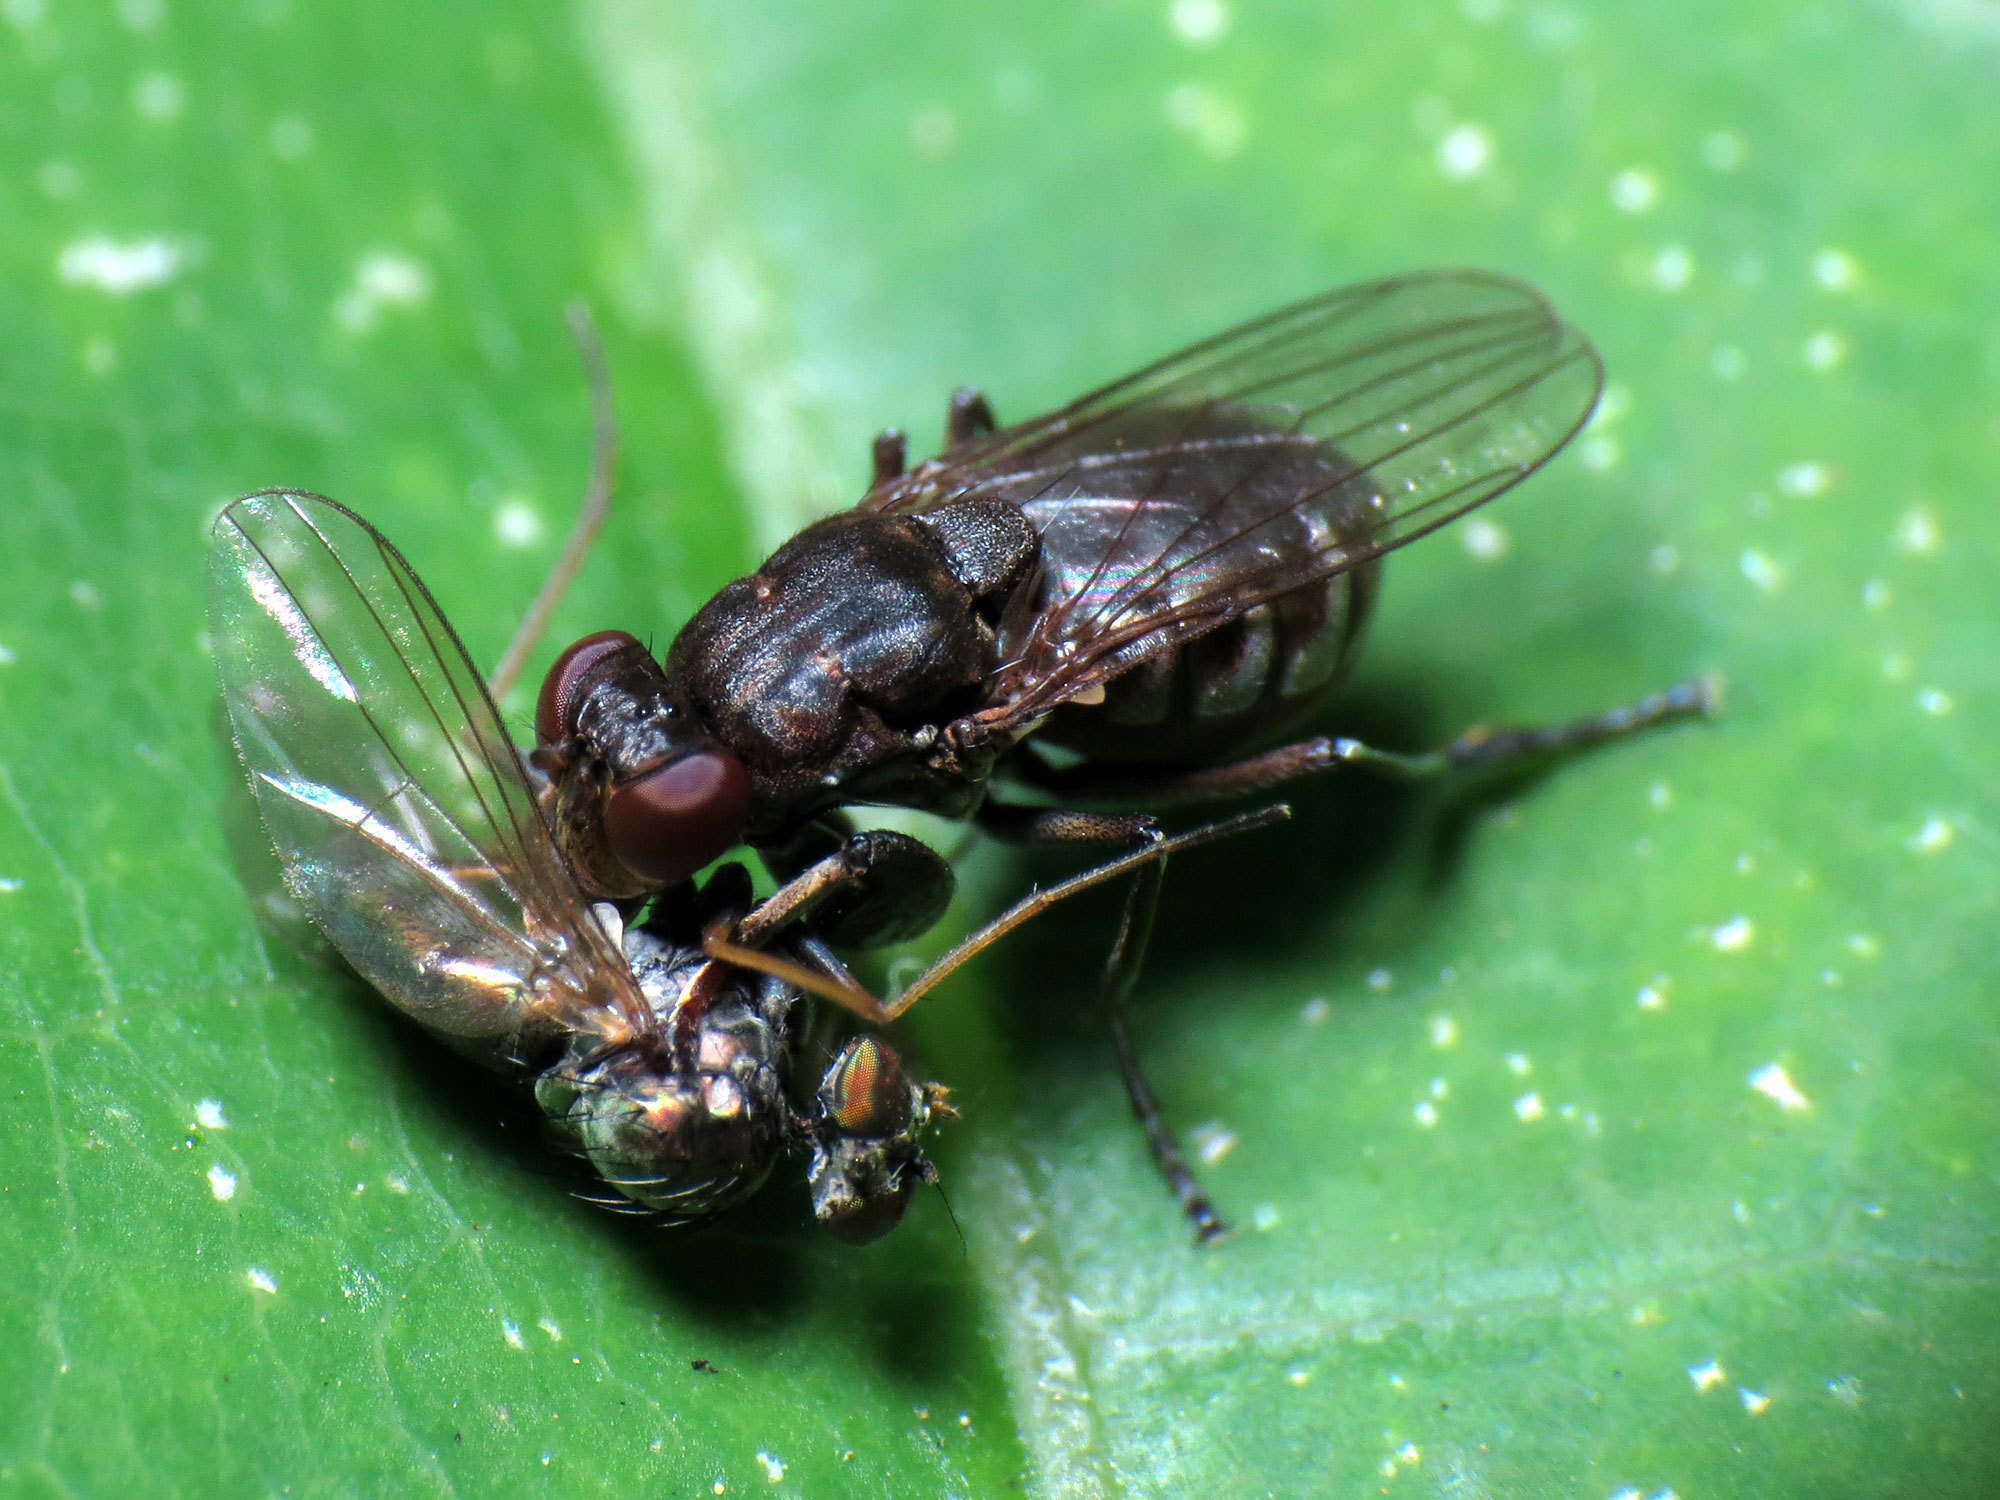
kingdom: Animalia
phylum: Arthropoda
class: Insecta
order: Diptera
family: Ephydridae
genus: Ochthera
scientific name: Ochthera tuberculata
